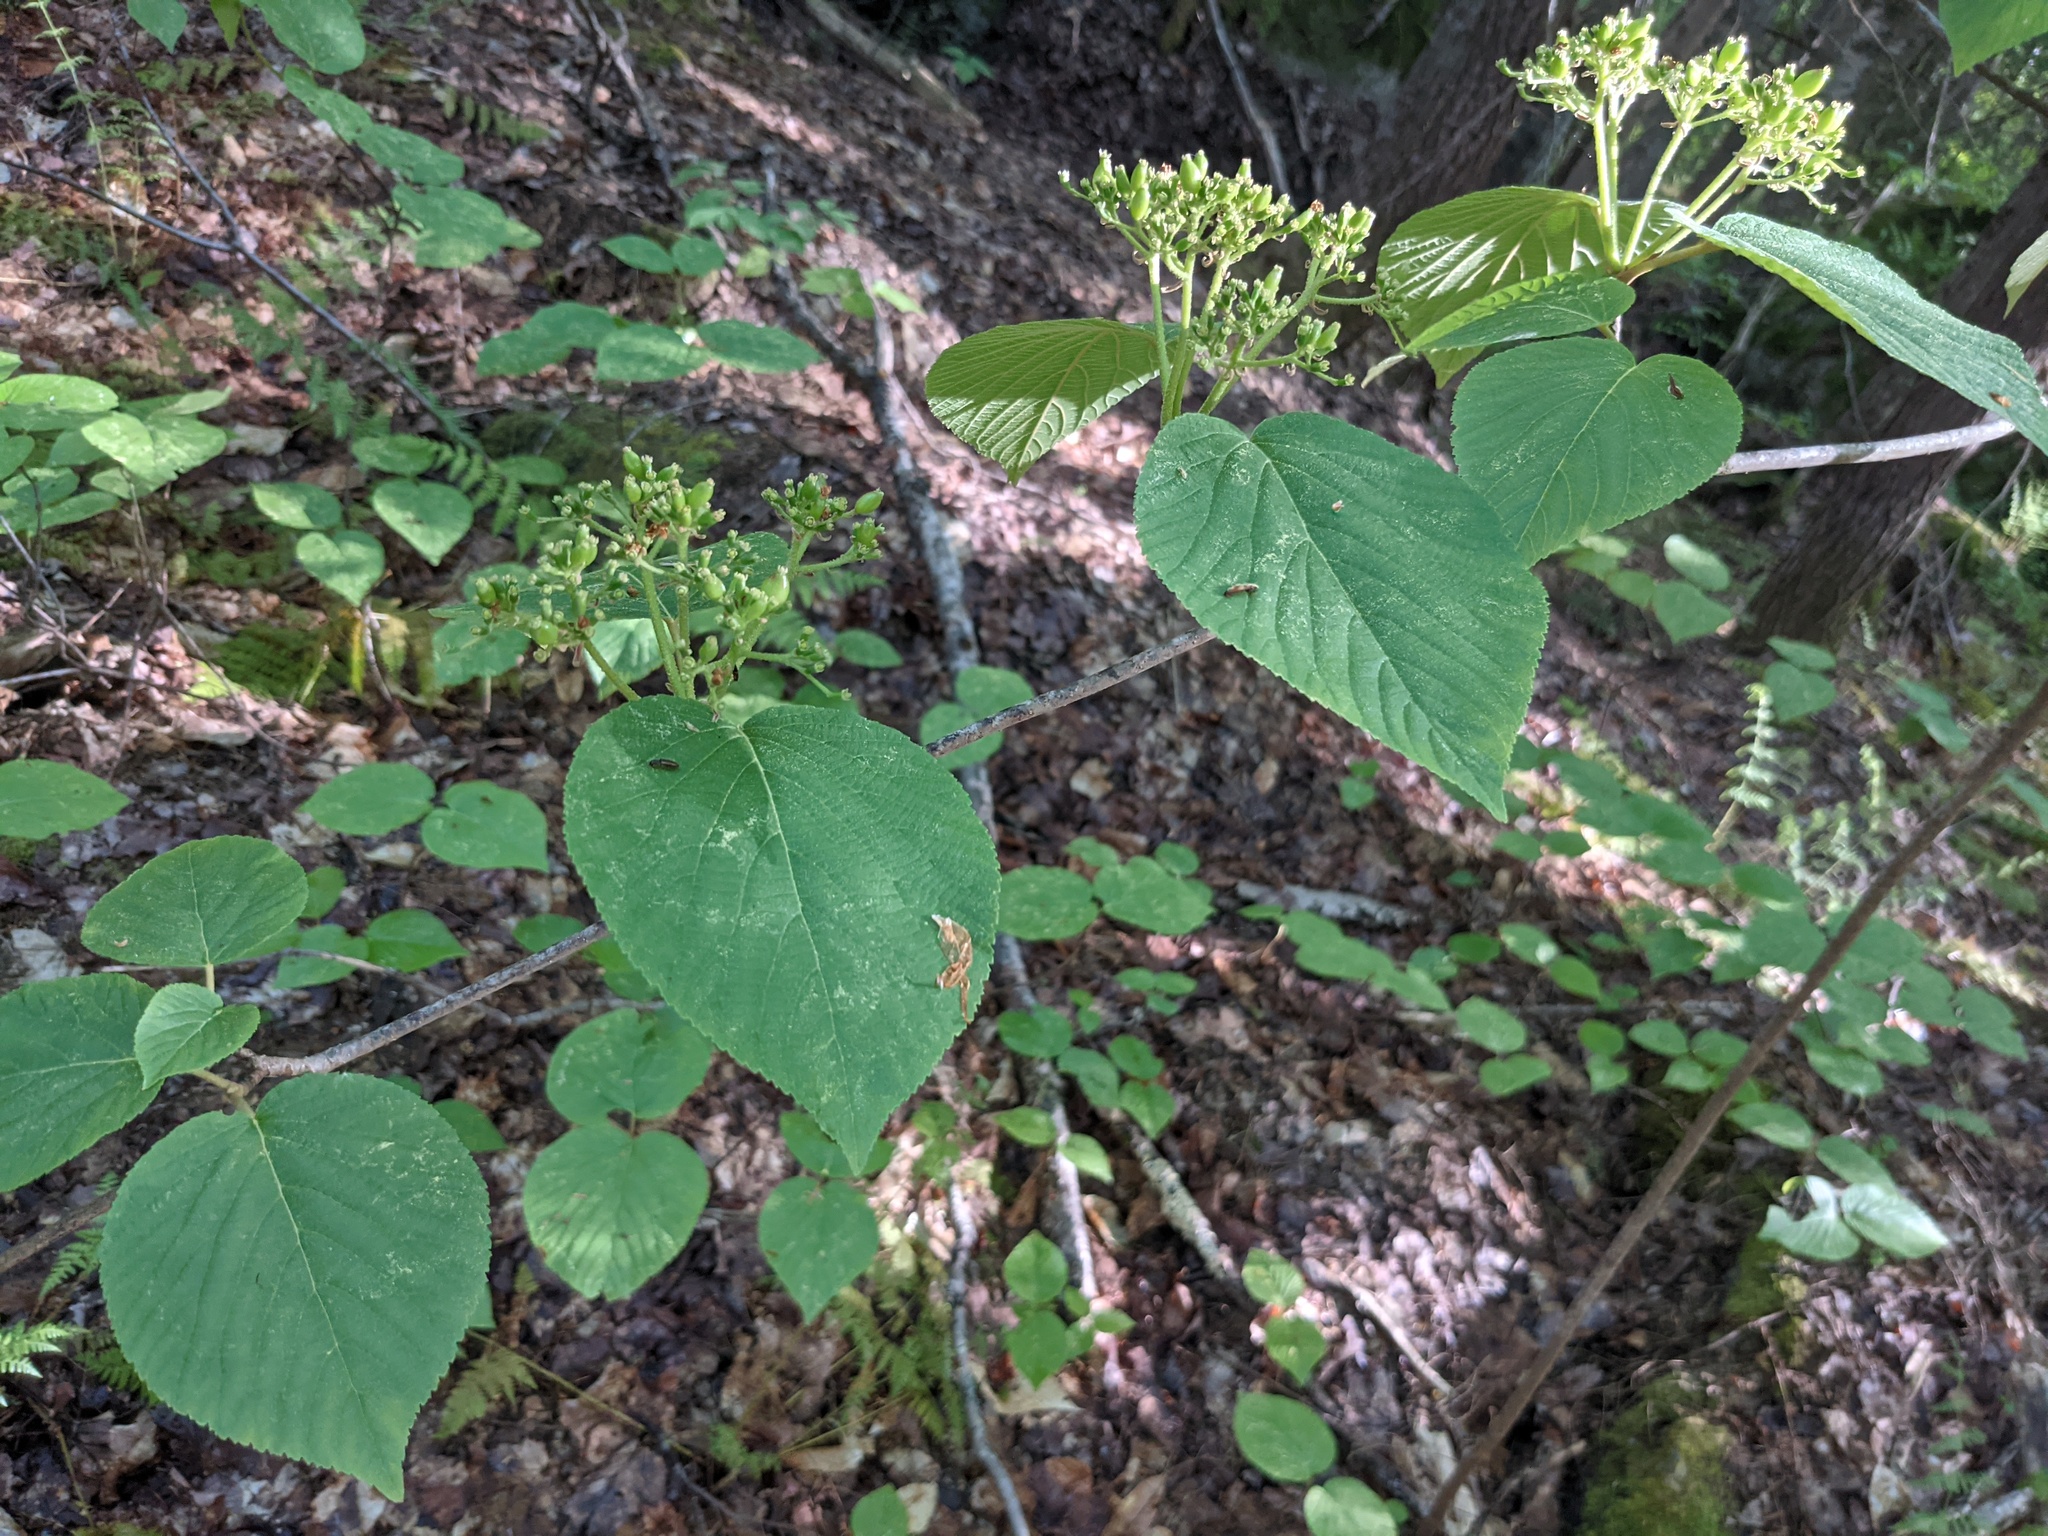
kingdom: Plantae
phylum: Tracheophyta
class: Magnoliopsida
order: Dipsacales
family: Viburnaceae
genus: Viburnum
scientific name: Viburnum lantanoides
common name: Hobblebush
